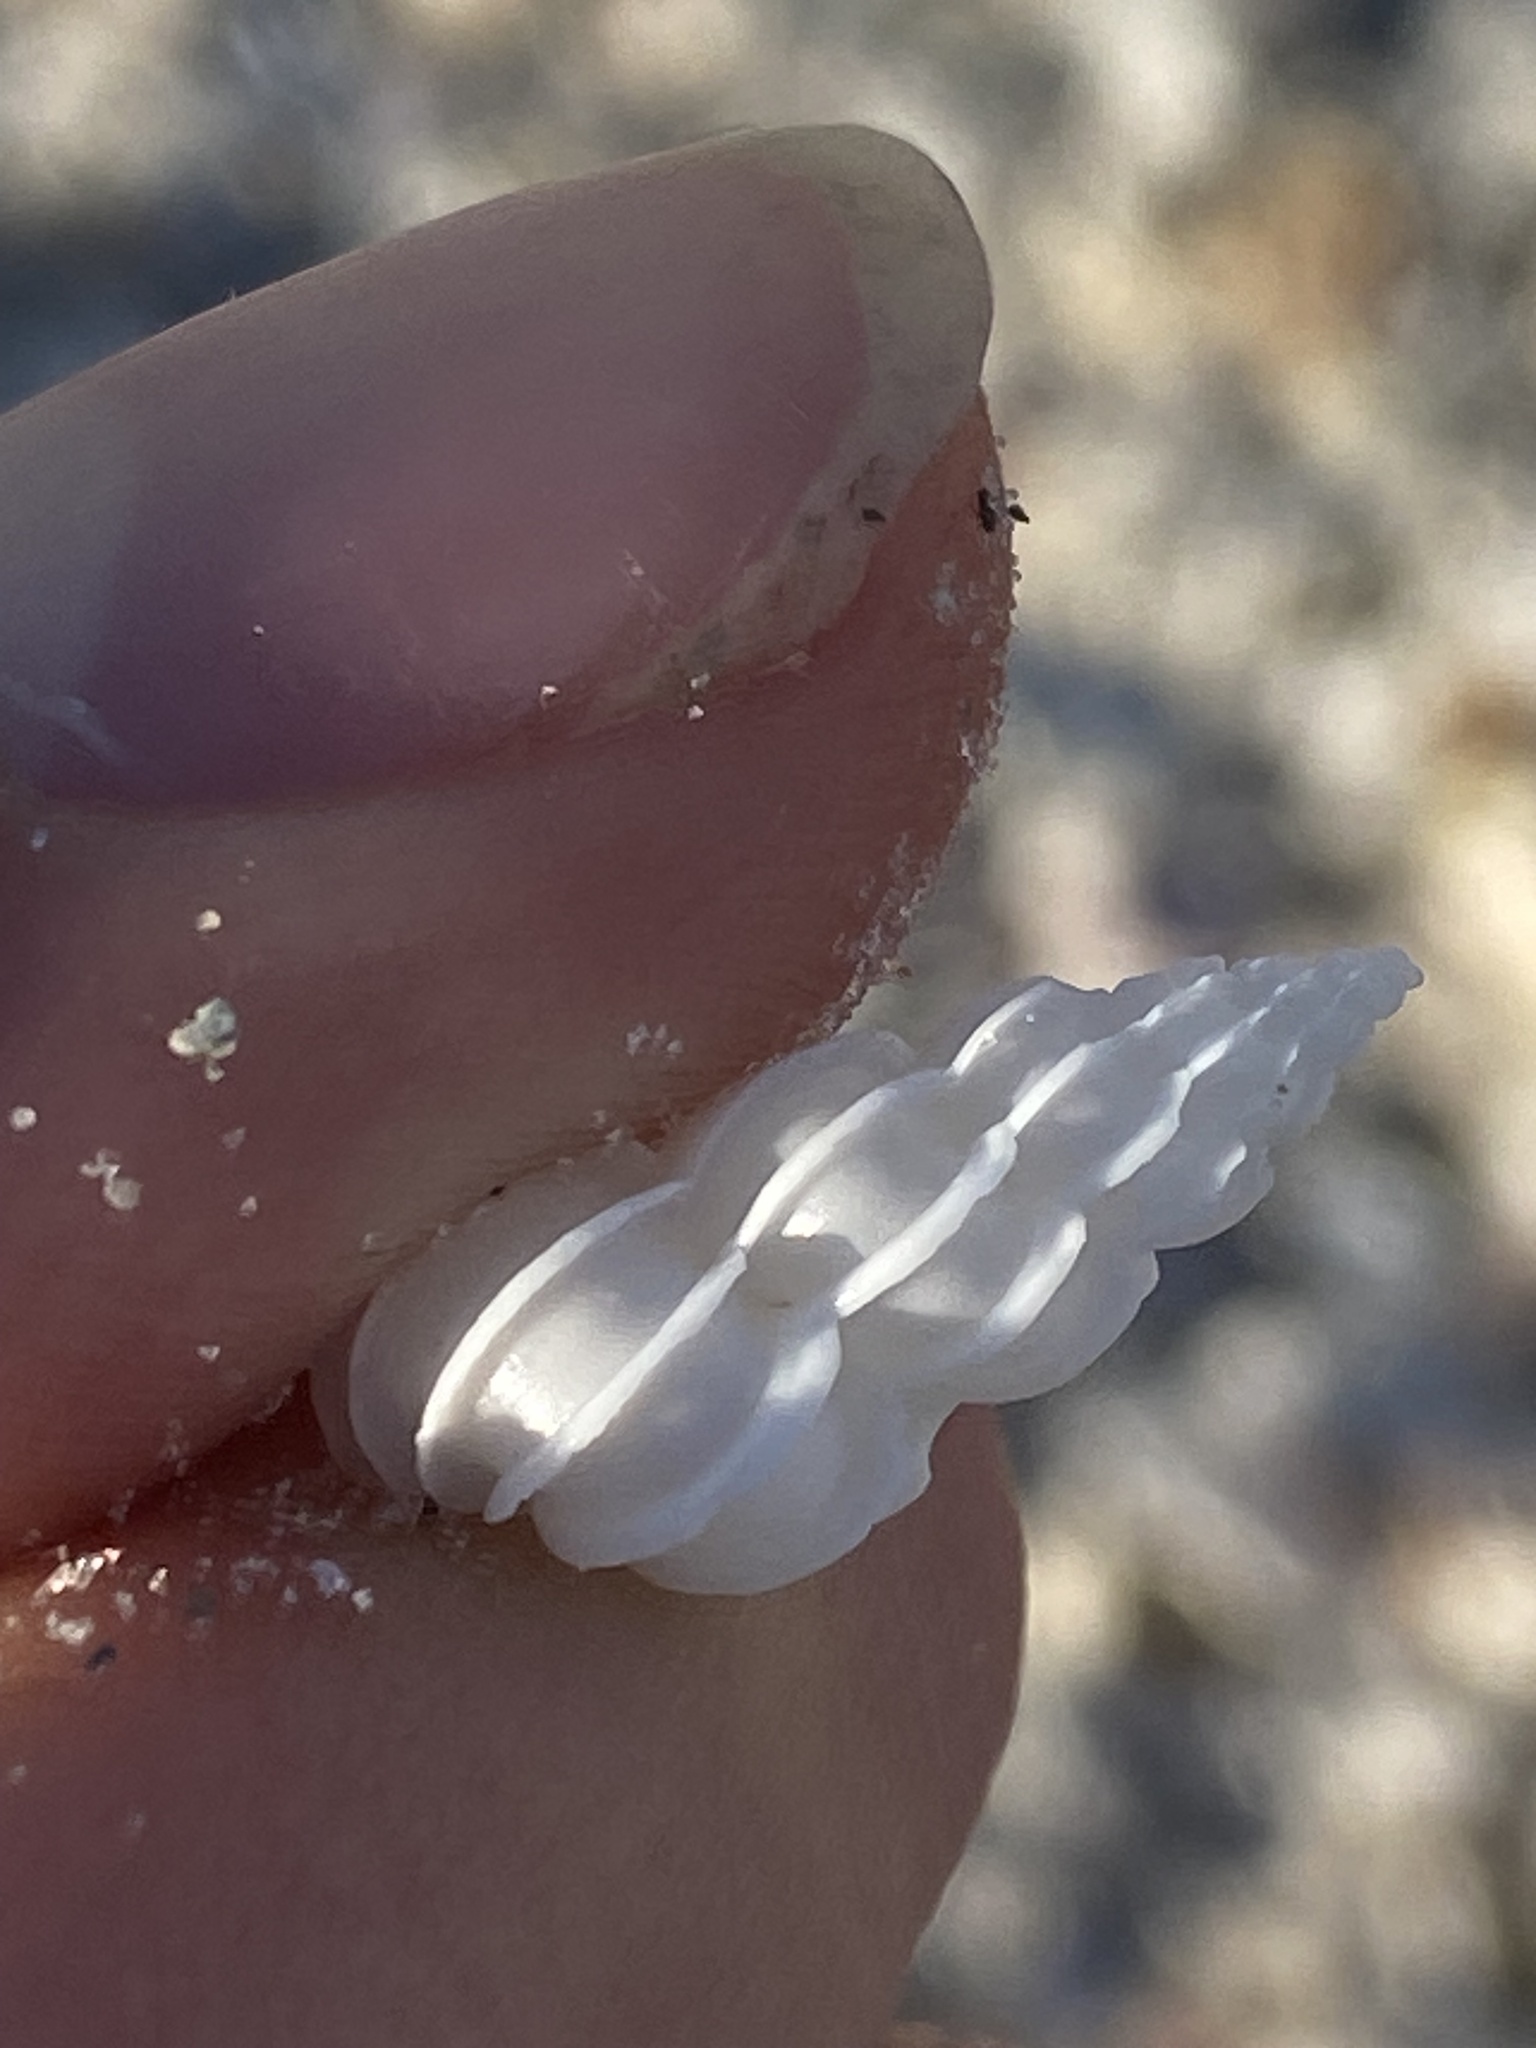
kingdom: Animalia
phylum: Mollusca
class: Gastropoda
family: Epitoniidae
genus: Epitonium
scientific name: Epitonium angulatum
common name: Angulate wentletrap
